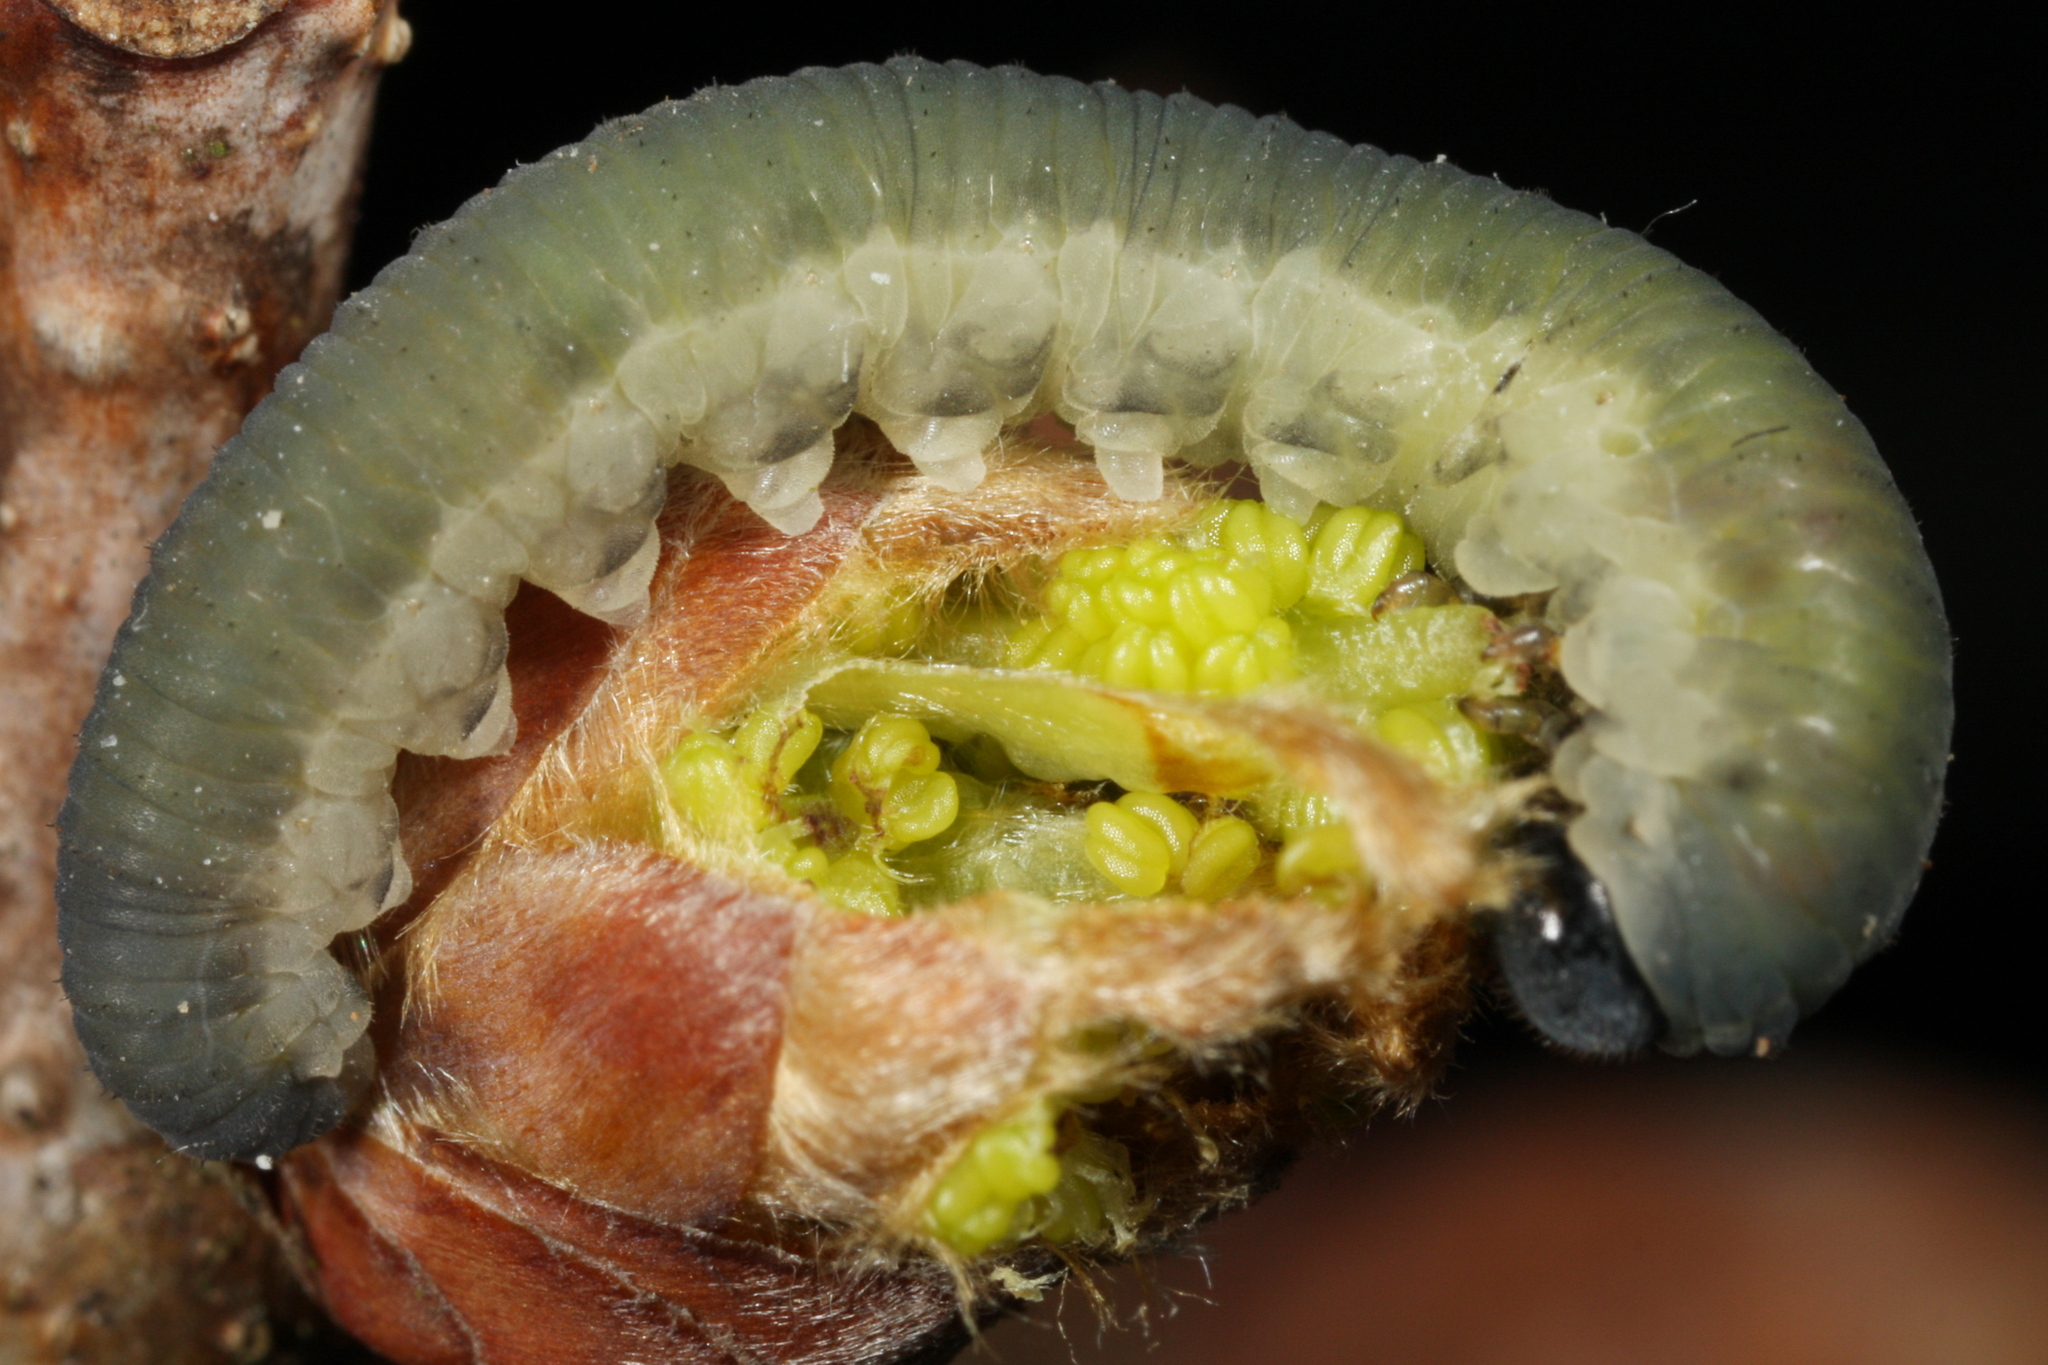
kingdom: Animalia
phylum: Arthropoda
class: Insecta
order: Hymenoptera
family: Tenthredinidae
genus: Apethymus
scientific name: Apethymus serotinus
